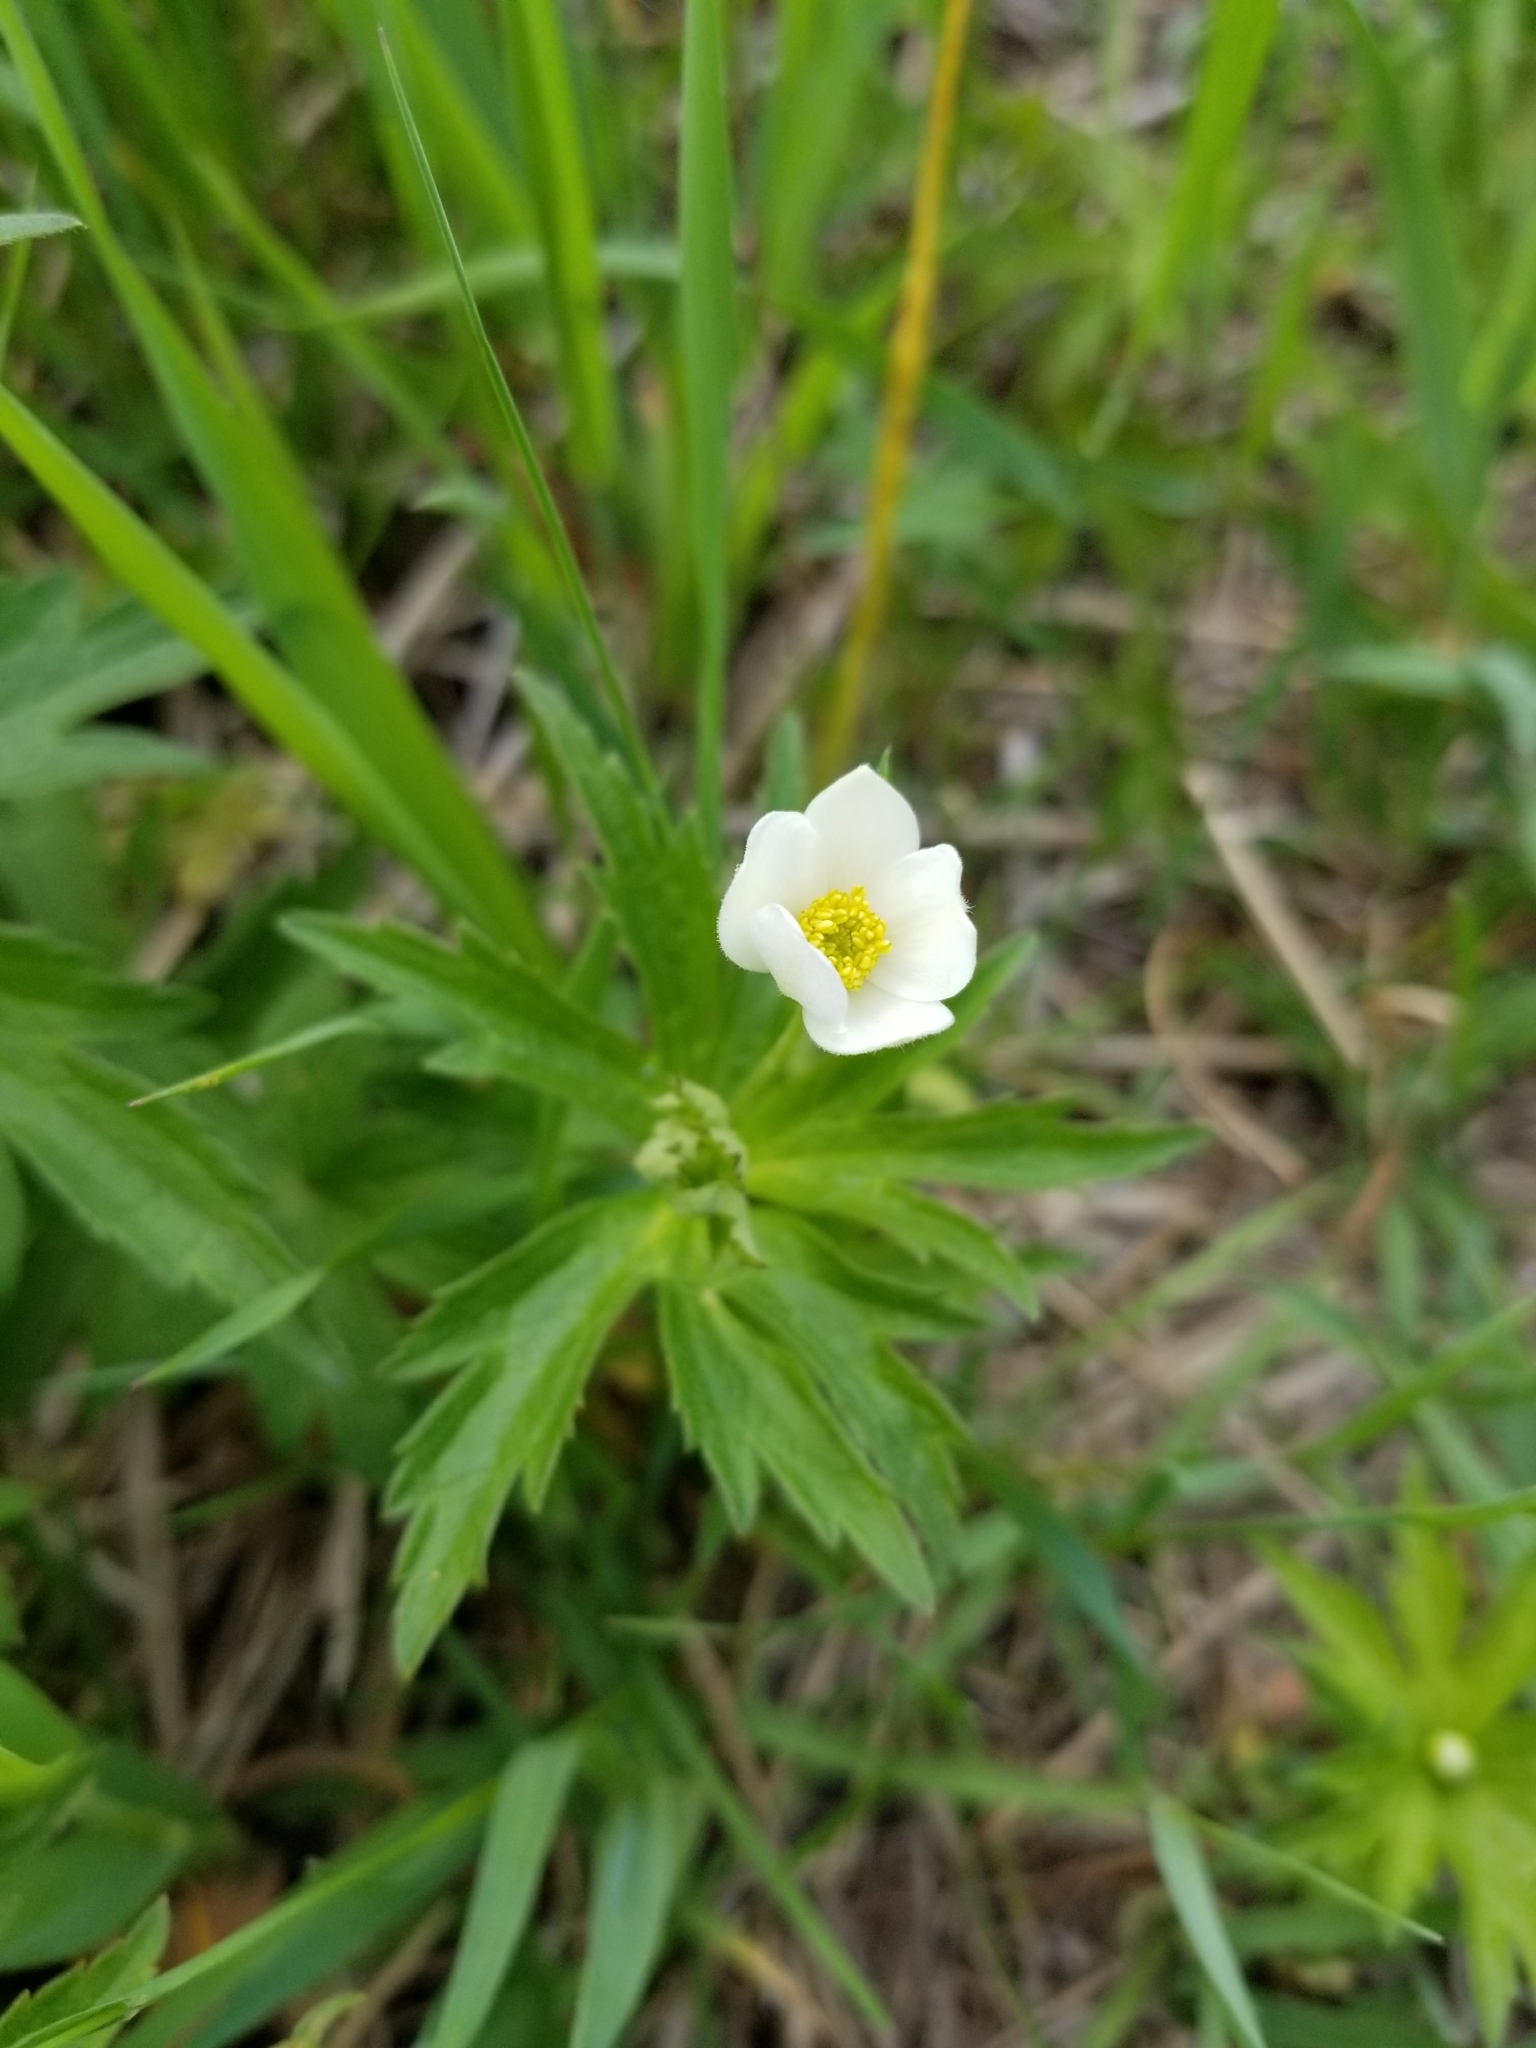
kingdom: Plantae
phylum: Tracheophyta
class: Magnoliopsida
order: Ranunculales
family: Ranunculaceae
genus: Anemonastrum
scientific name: Anemonastrum canadense
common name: Canada anemone
